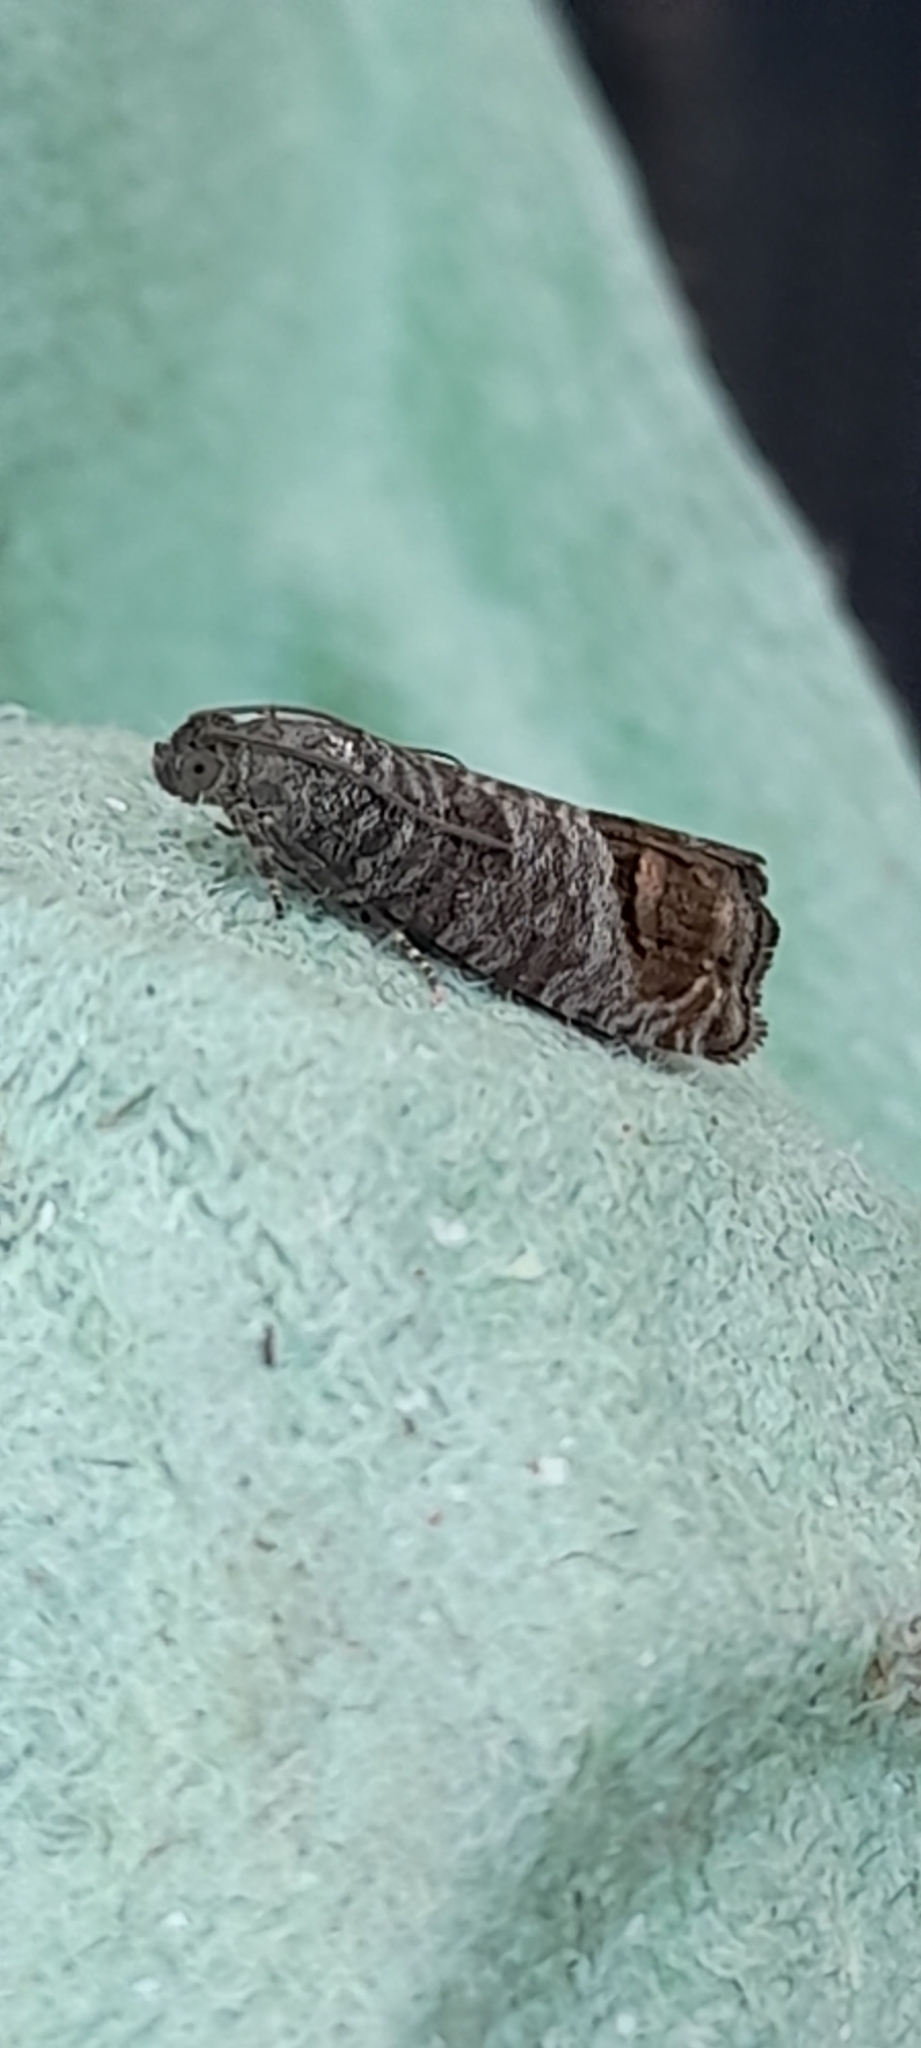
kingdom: Animalia
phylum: Arthropoda
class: Insecta
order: Lepidoptera
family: Tortricidae
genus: Cydia
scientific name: Cydia pomonella
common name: Codling moth
